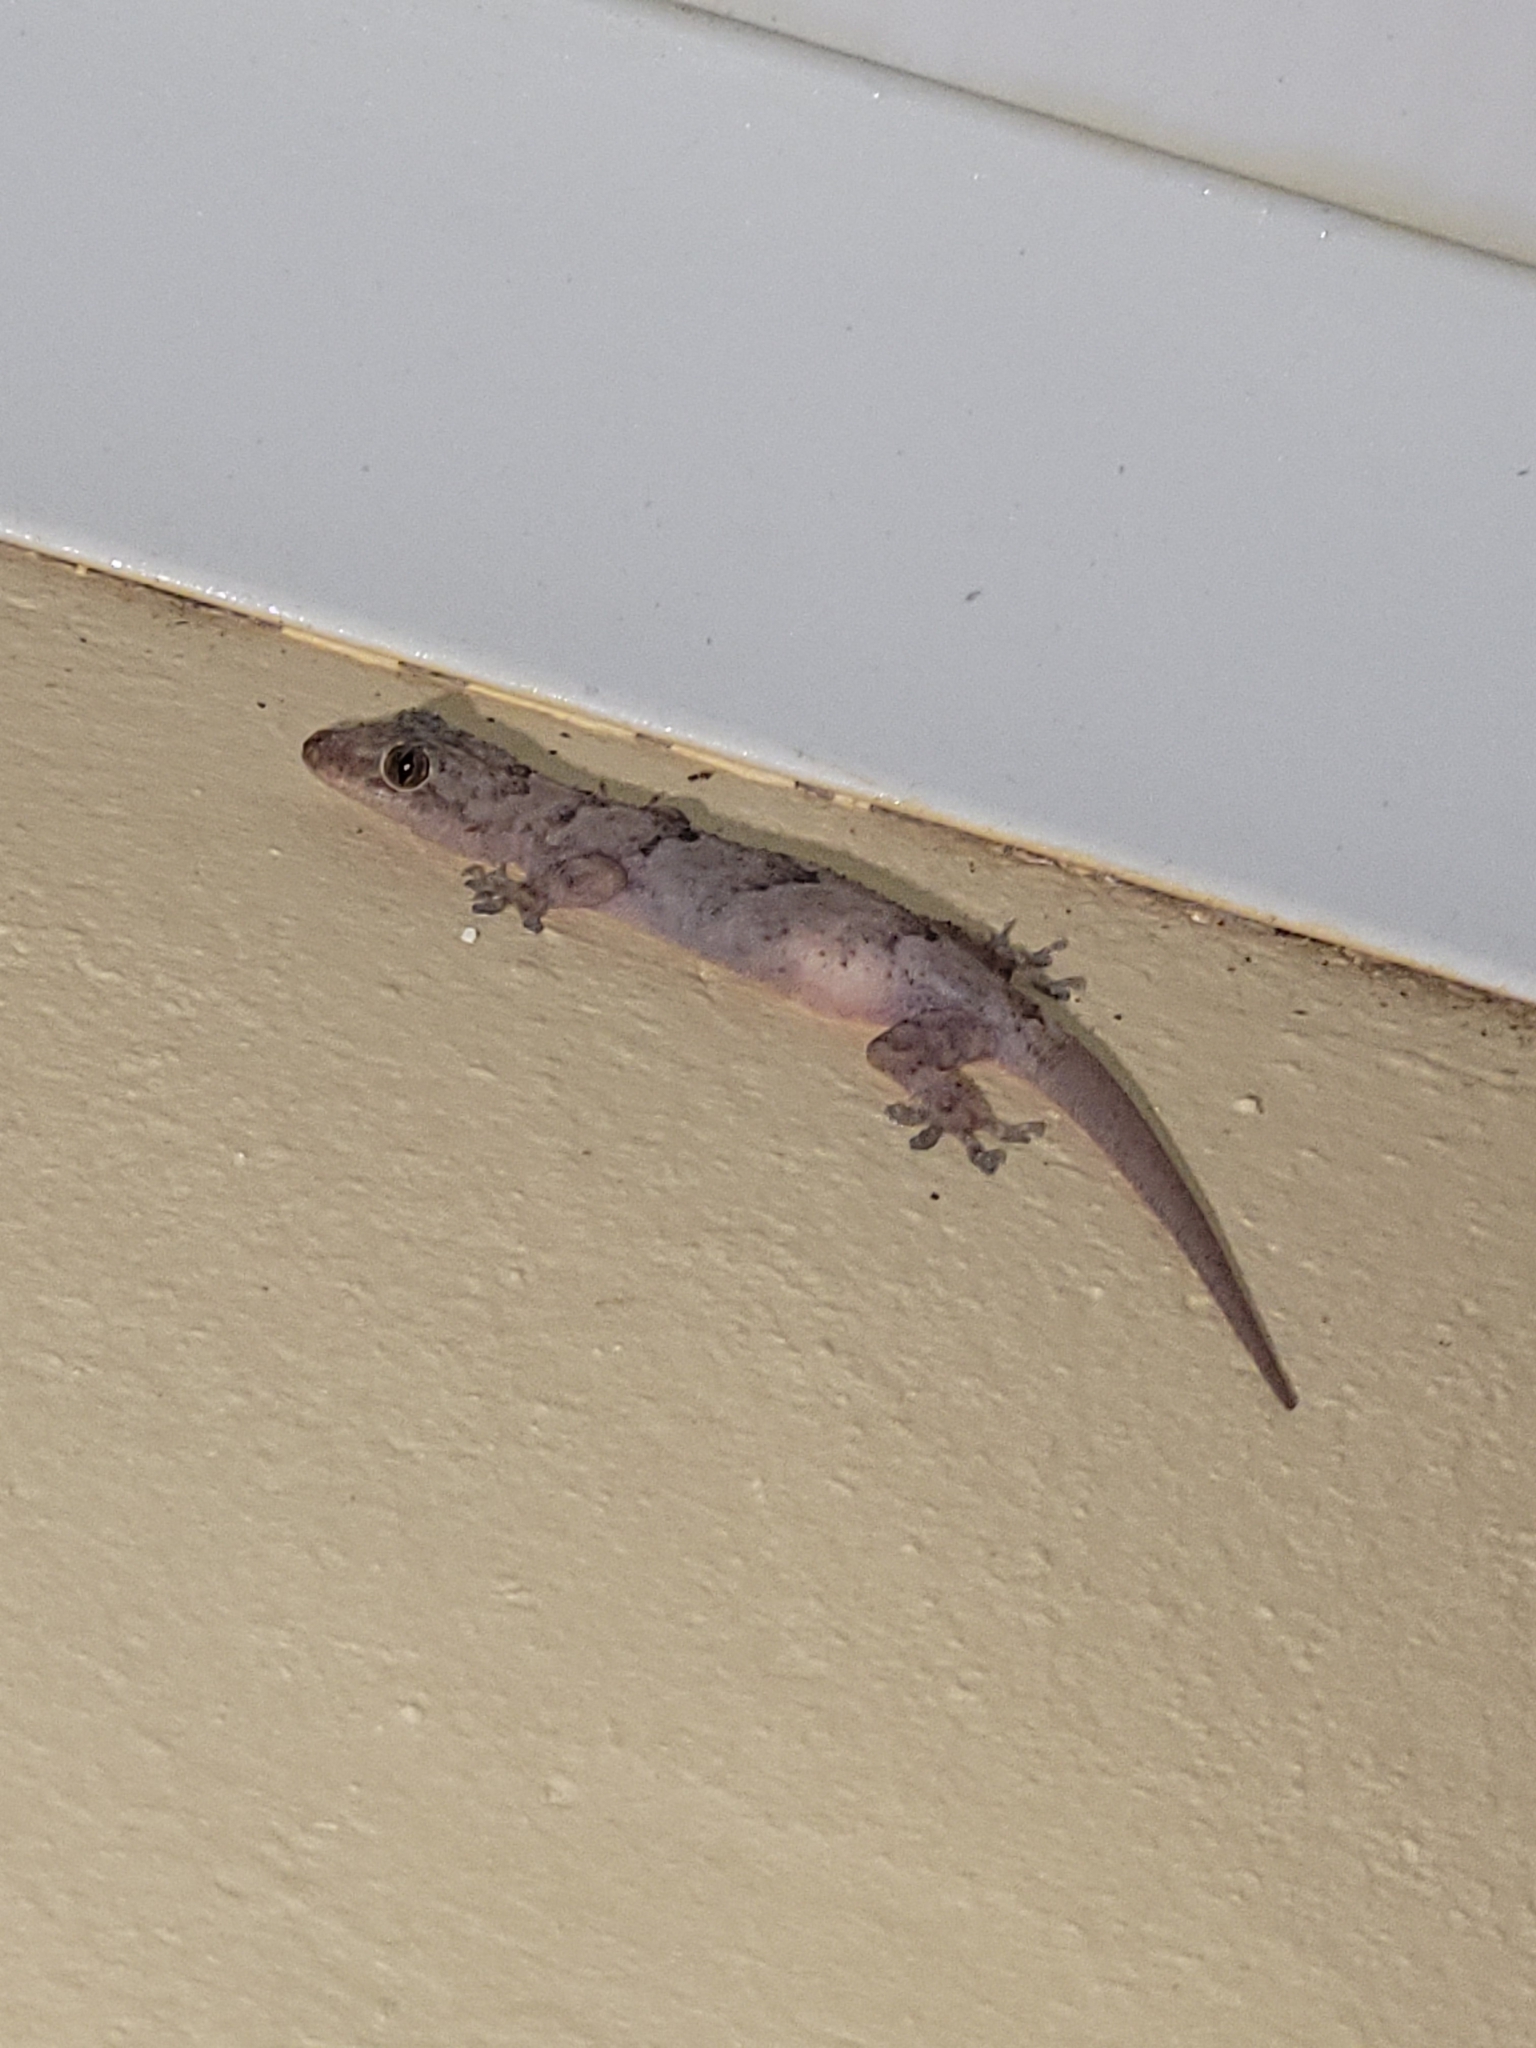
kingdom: Animalia
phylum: Chordata
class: Squamata
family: Gekkonidae
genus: Hemidactylus
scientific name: Hemidactylus mabouia
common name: House gecko
